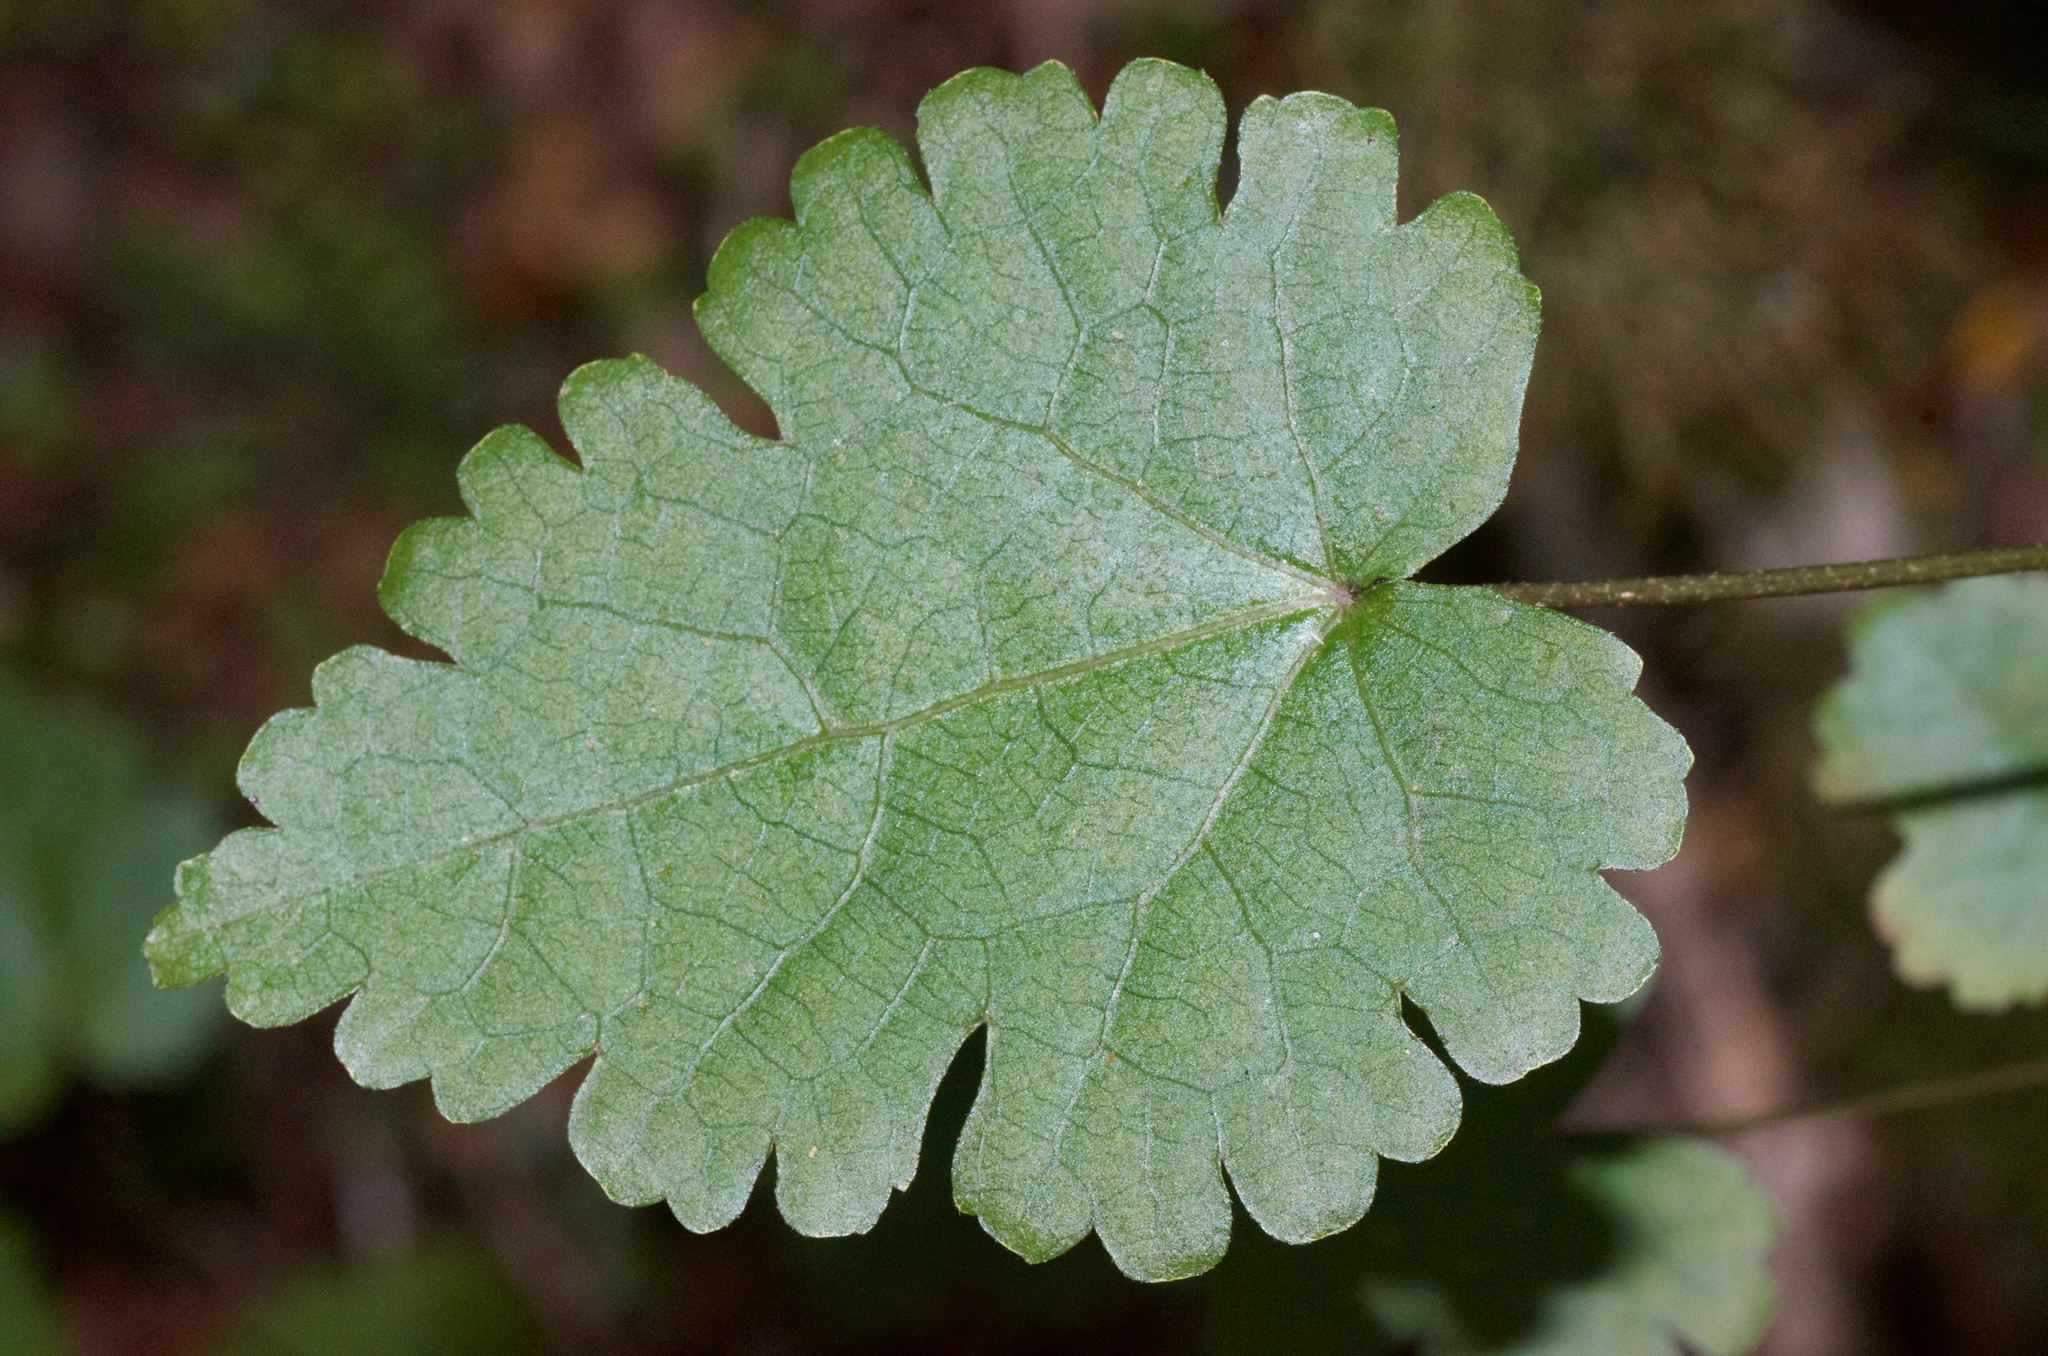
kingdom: Plantae
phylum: Tracheophyta
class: Magnoliopsida
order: Malvales
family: Malvaceae
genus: Hoheria
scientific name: Hoheria glabrata
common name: Mountain-ribbon
